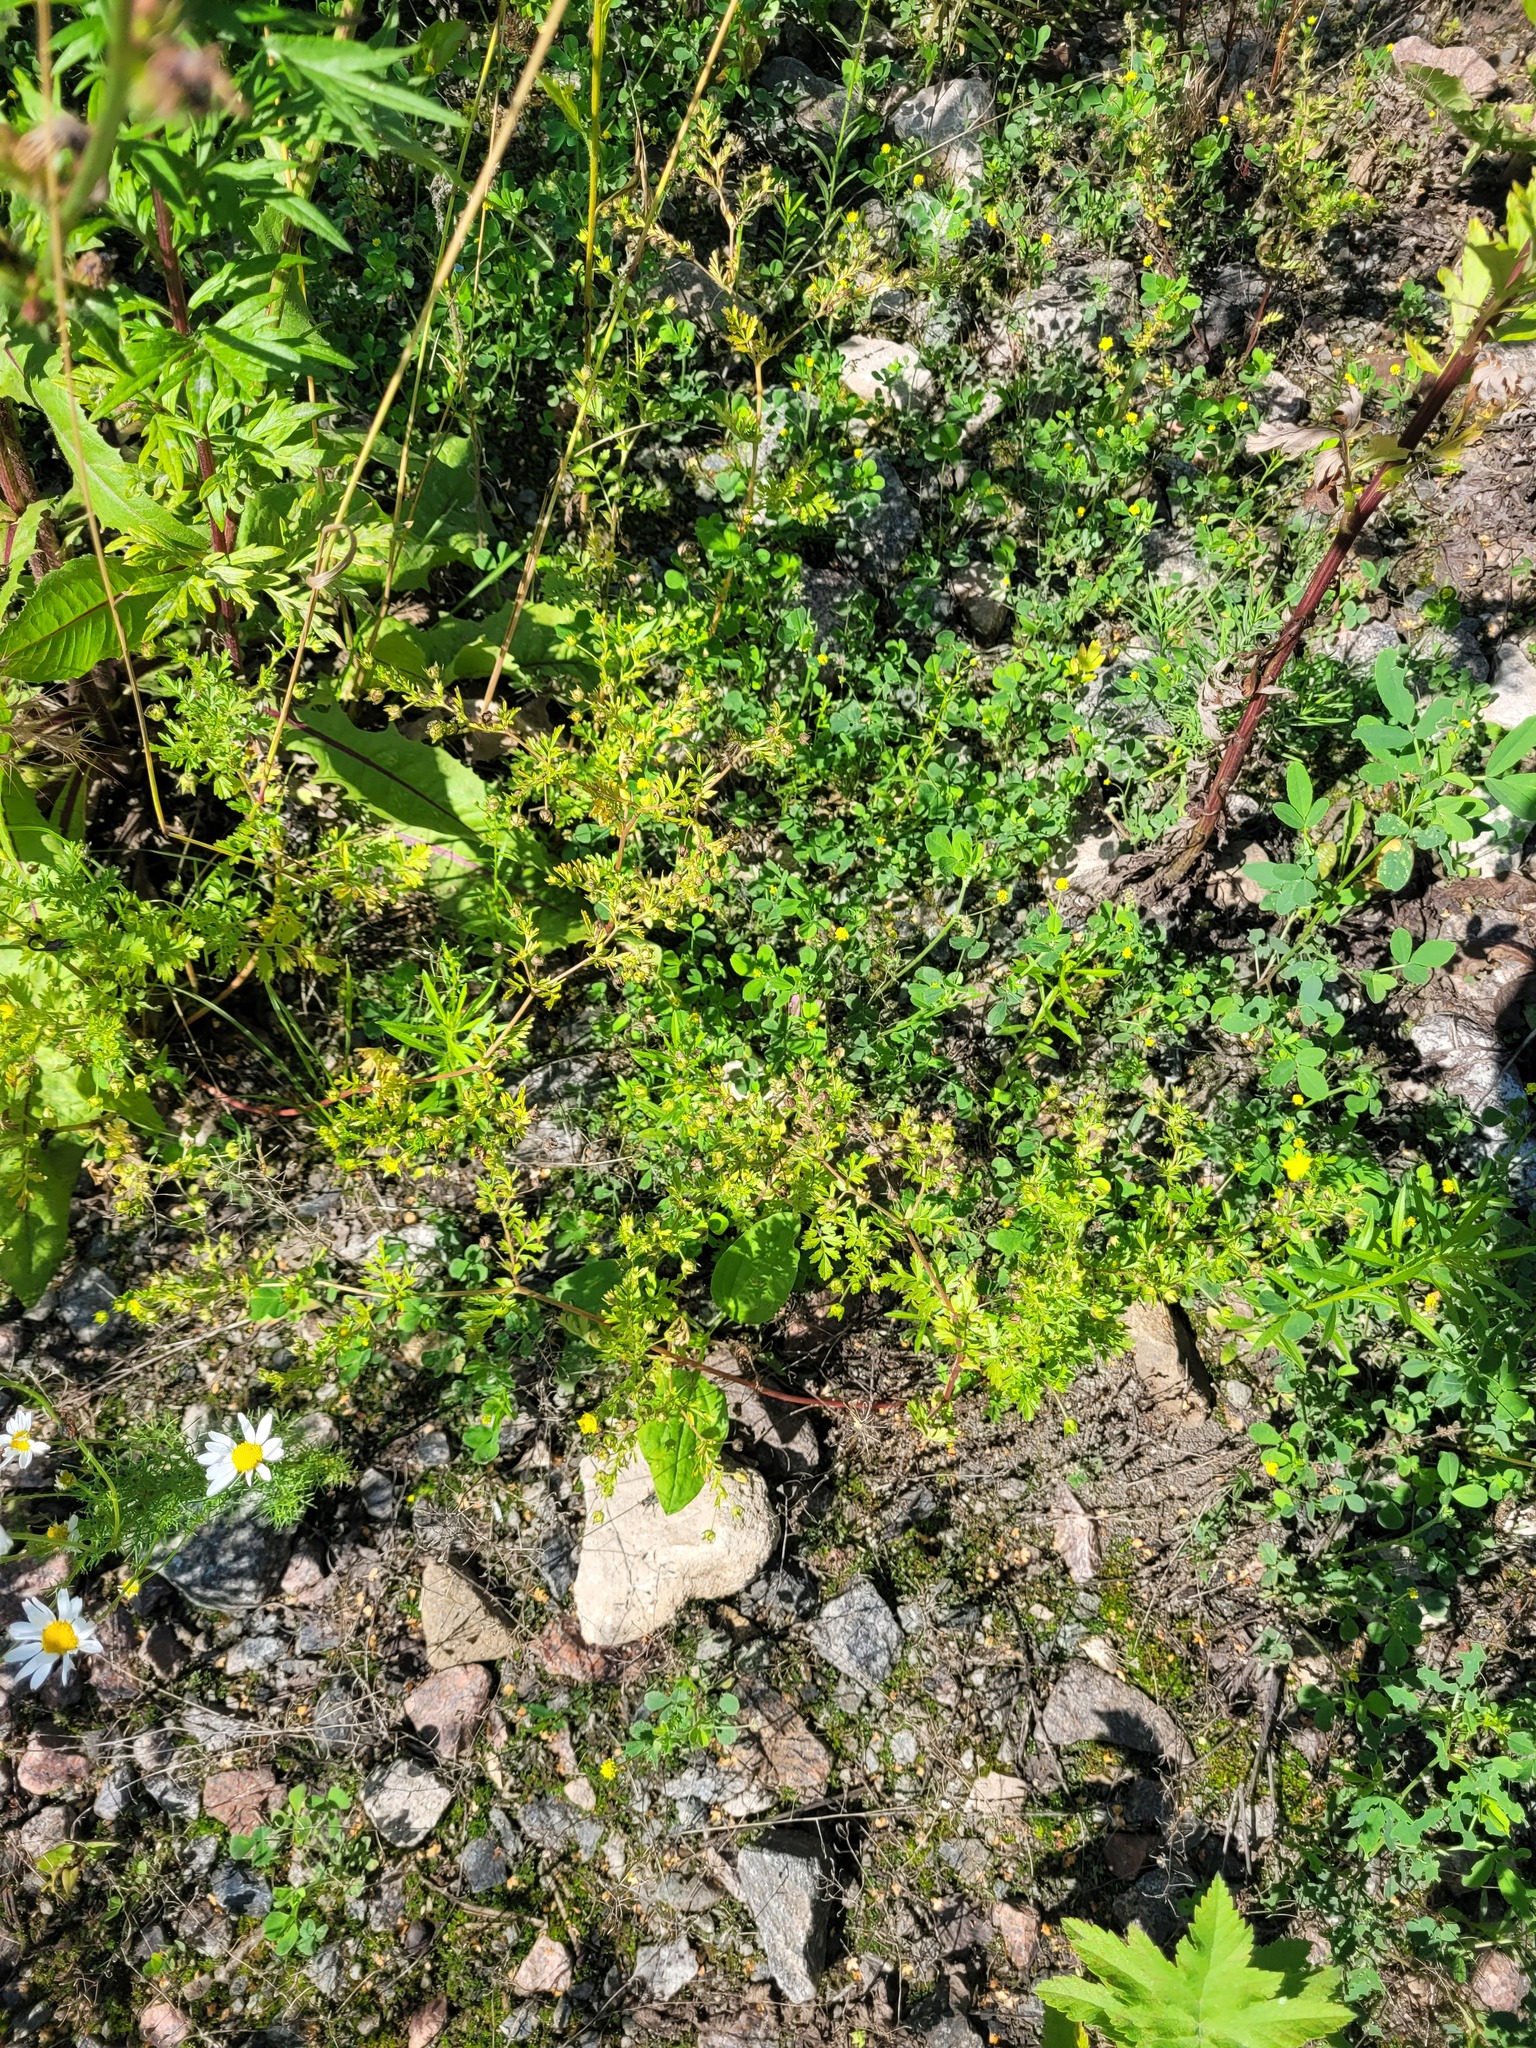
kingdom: Plantae
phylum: Tracheophyta
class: Magnoliopsida
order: Rosales
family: Rosaceae
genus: Potentilla
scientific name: Potentilla supina
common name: Prostrate cinquefoil
